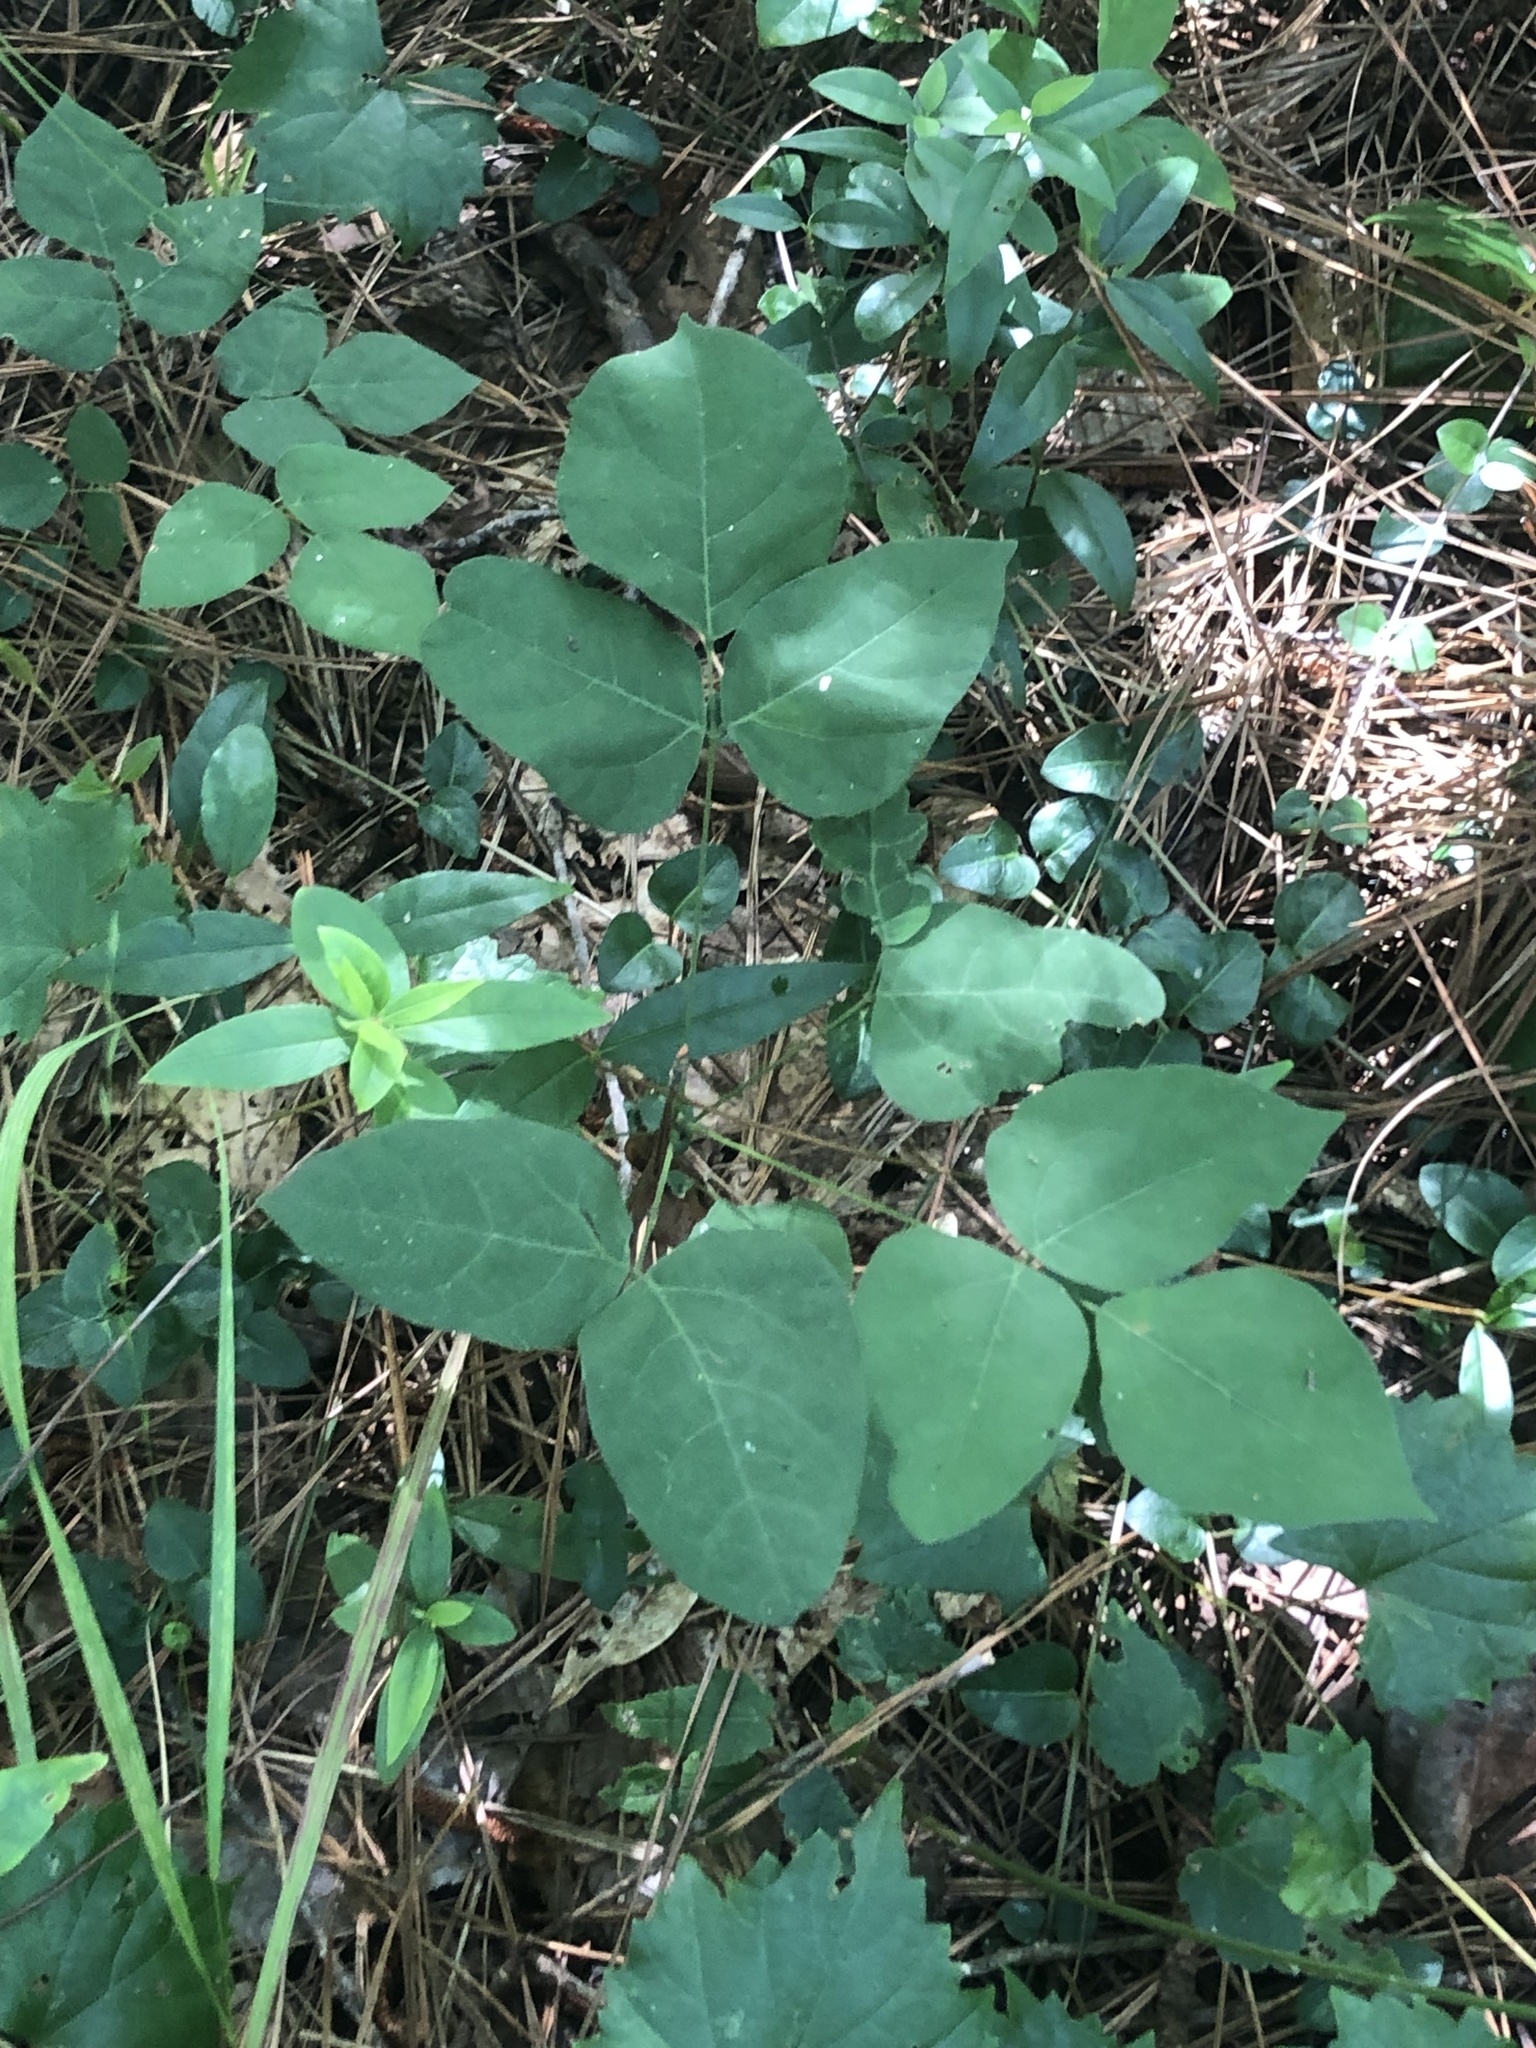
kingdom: Plantae
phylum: Tracheophyta
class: Magnoliopsida
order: Fabales
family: Fabaceae
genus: Hylodesmum
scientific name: Hylodesmum nudiflorum
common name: Bare-stemmed tick-trefoil
